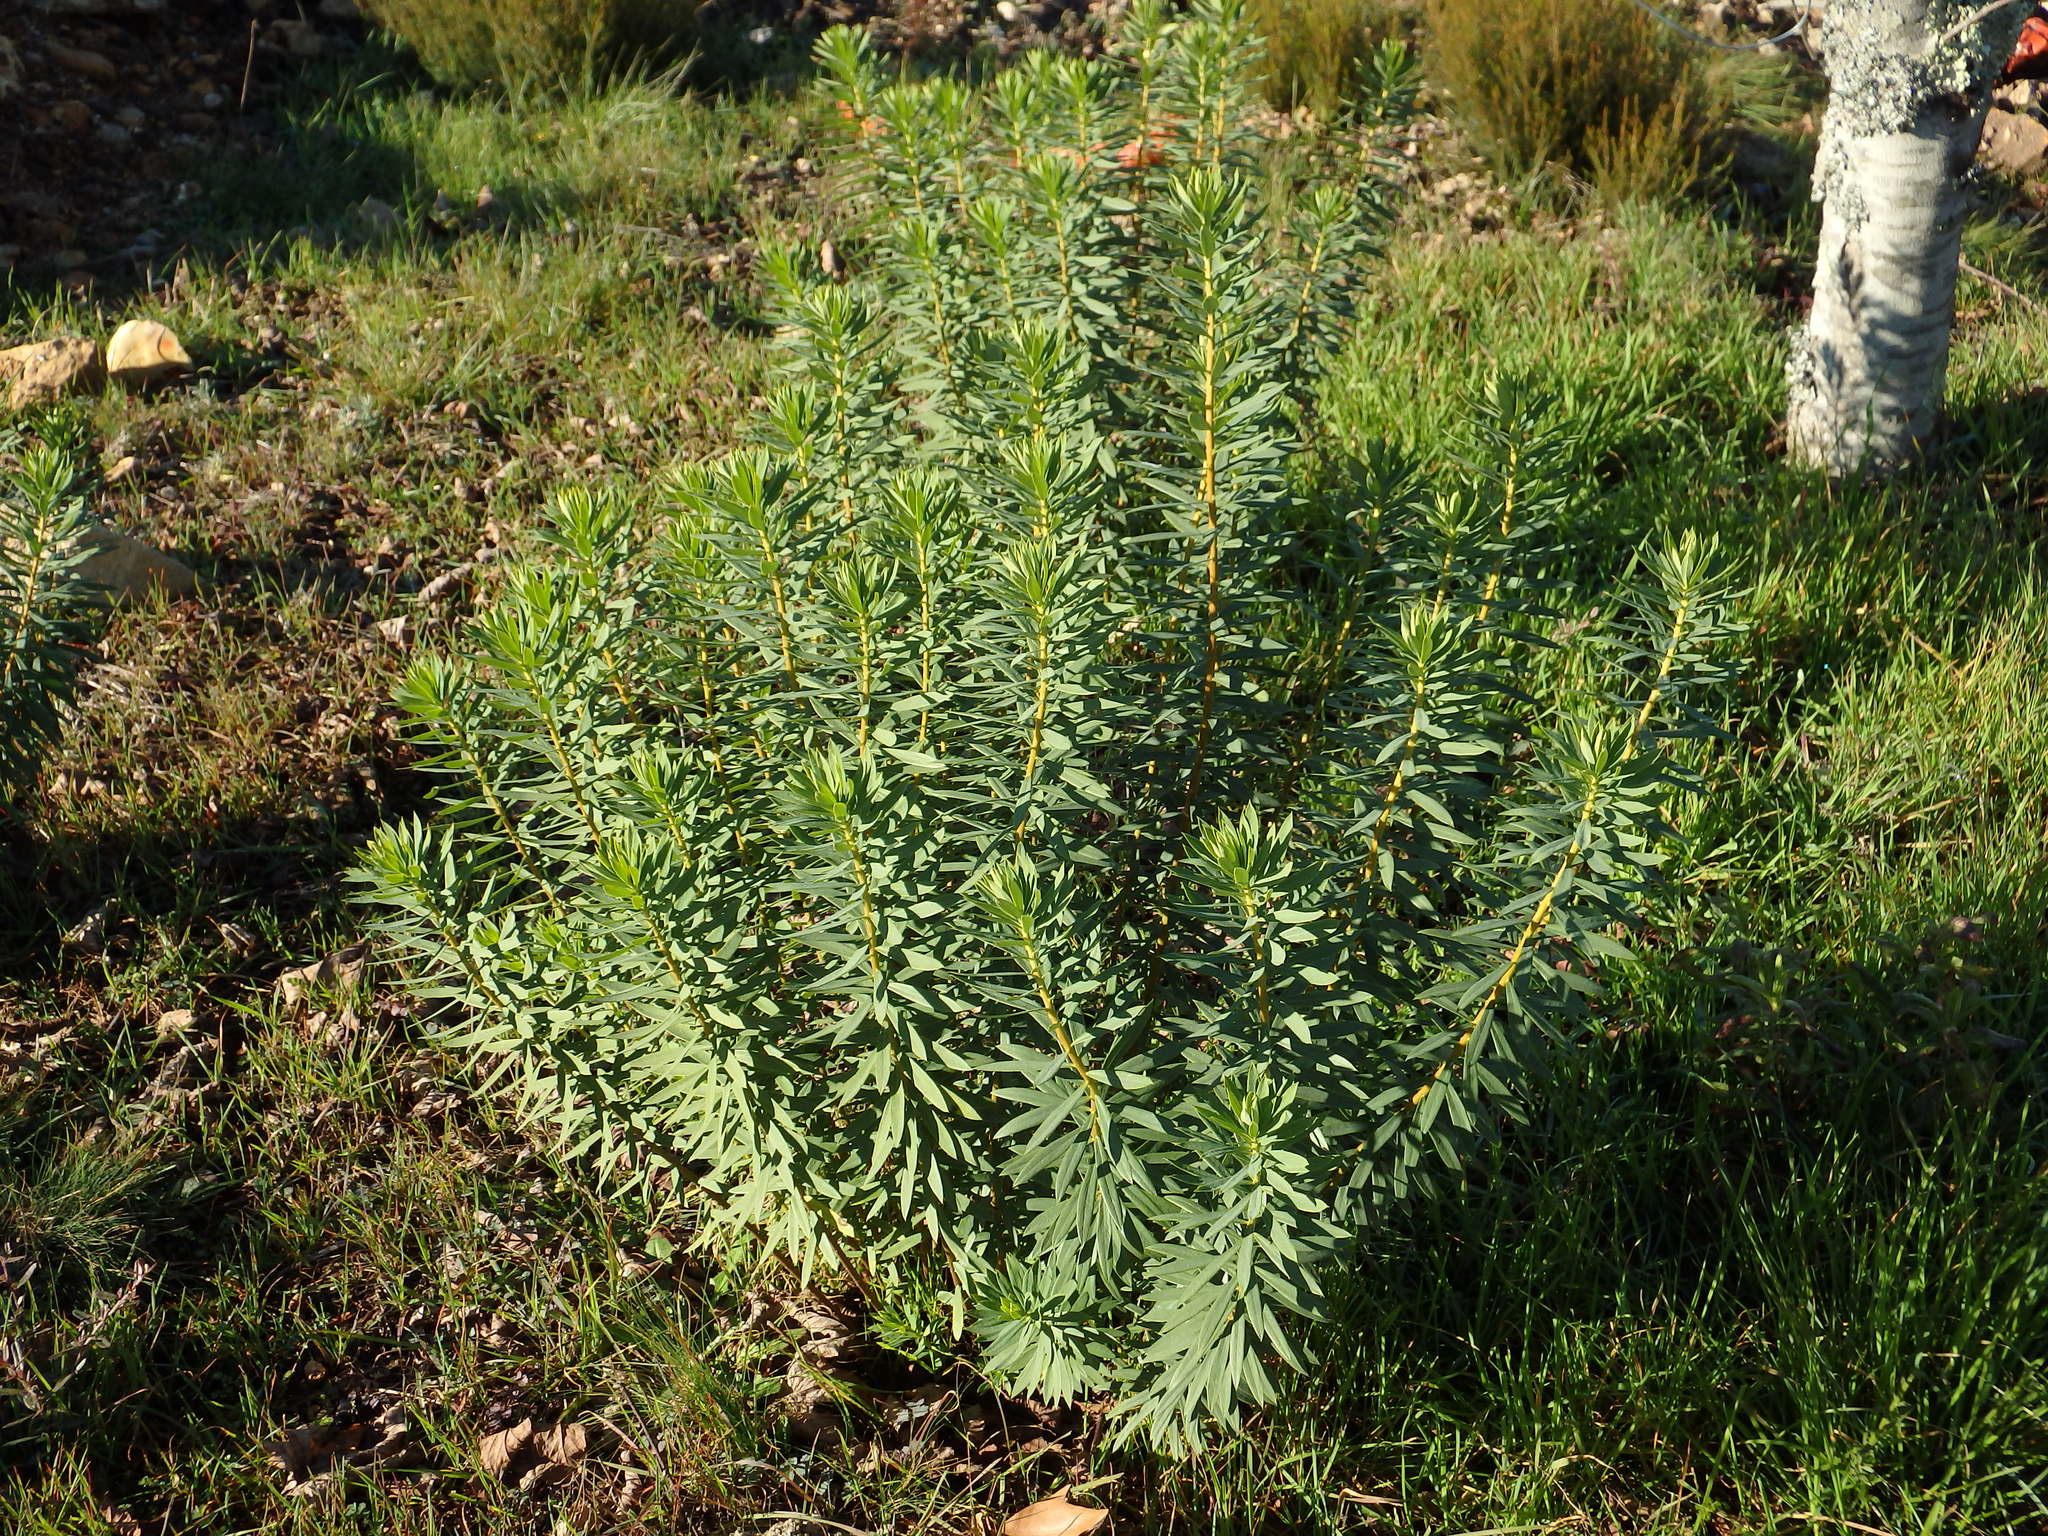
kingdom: Plantae
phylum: Tracheophyta
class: Magnoliopsida
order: Malvales
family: Thymelaeaceae
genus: Daphne
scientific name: Daphne gnidium
